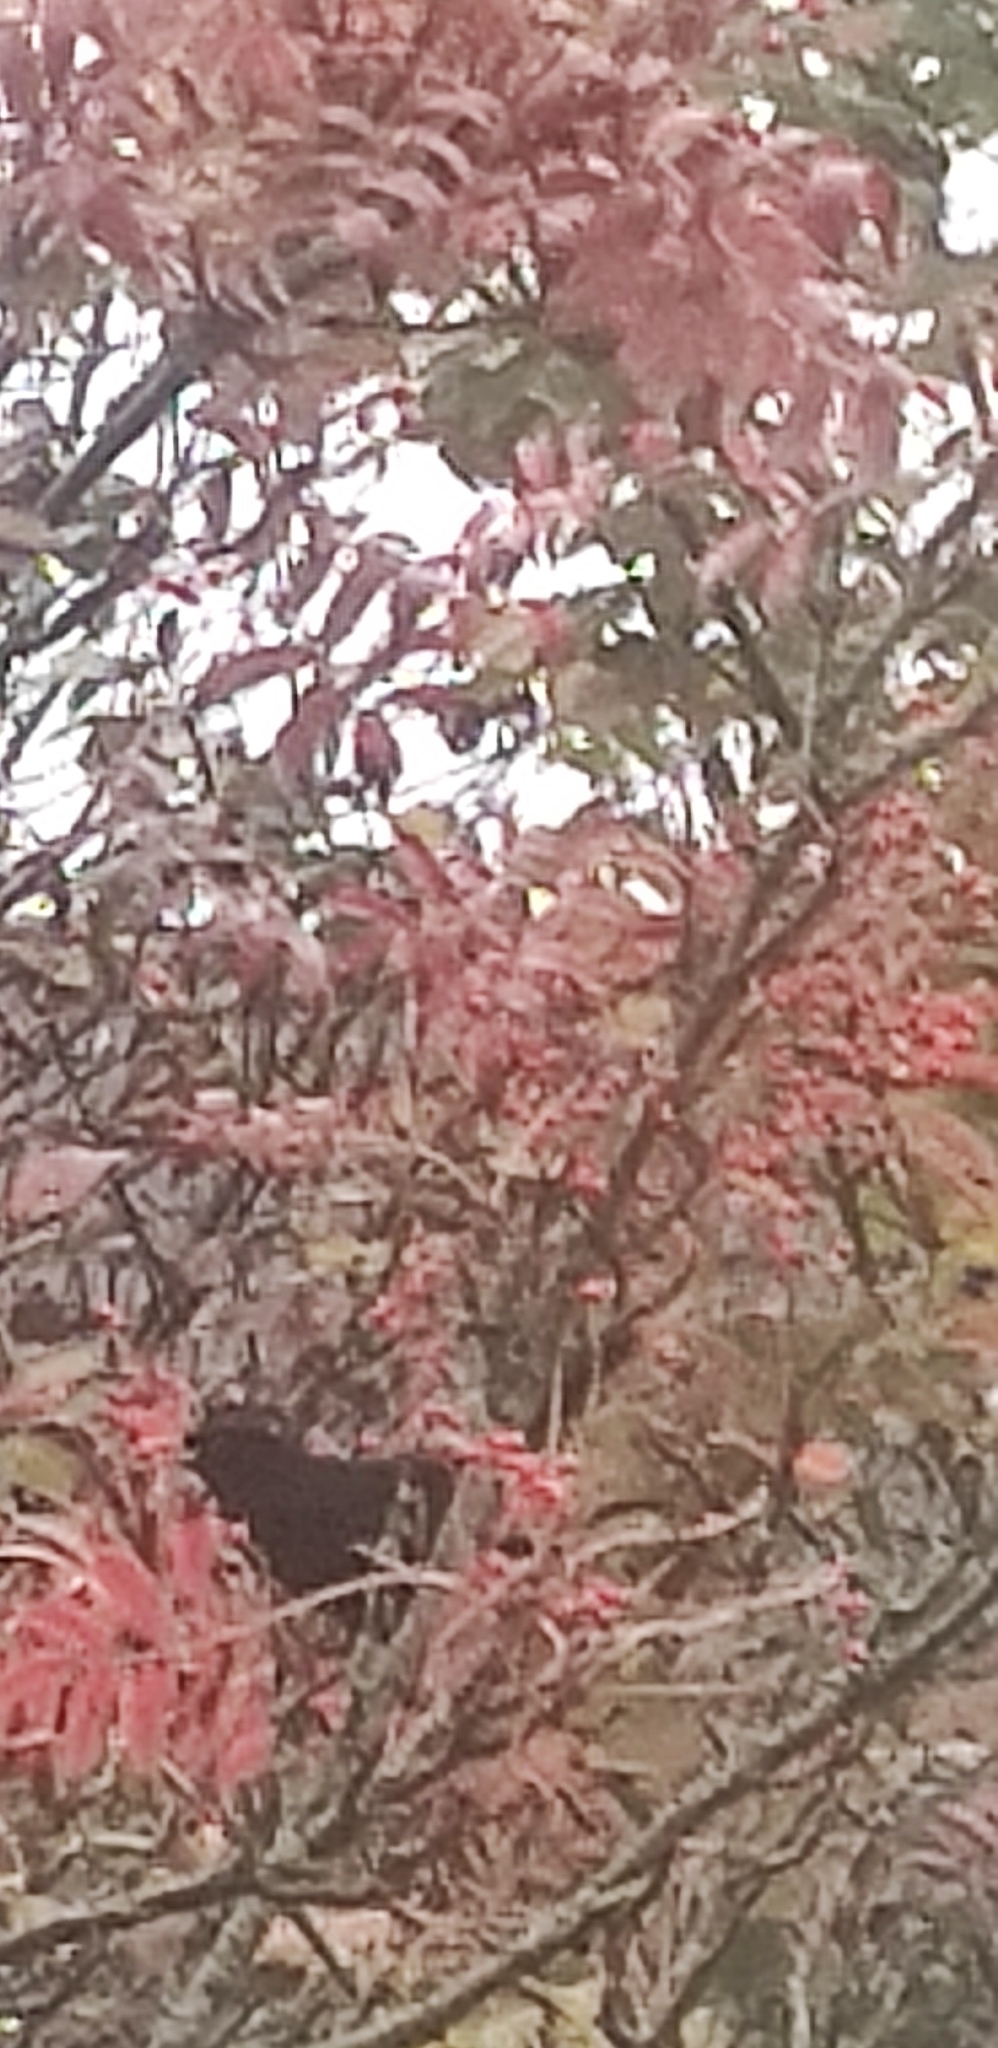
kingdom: Animalia
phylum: Chordata
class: Aves
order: Passeriformes
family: Turdidae
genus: Turdus
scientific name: Turdus merula
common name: Common blackbird
